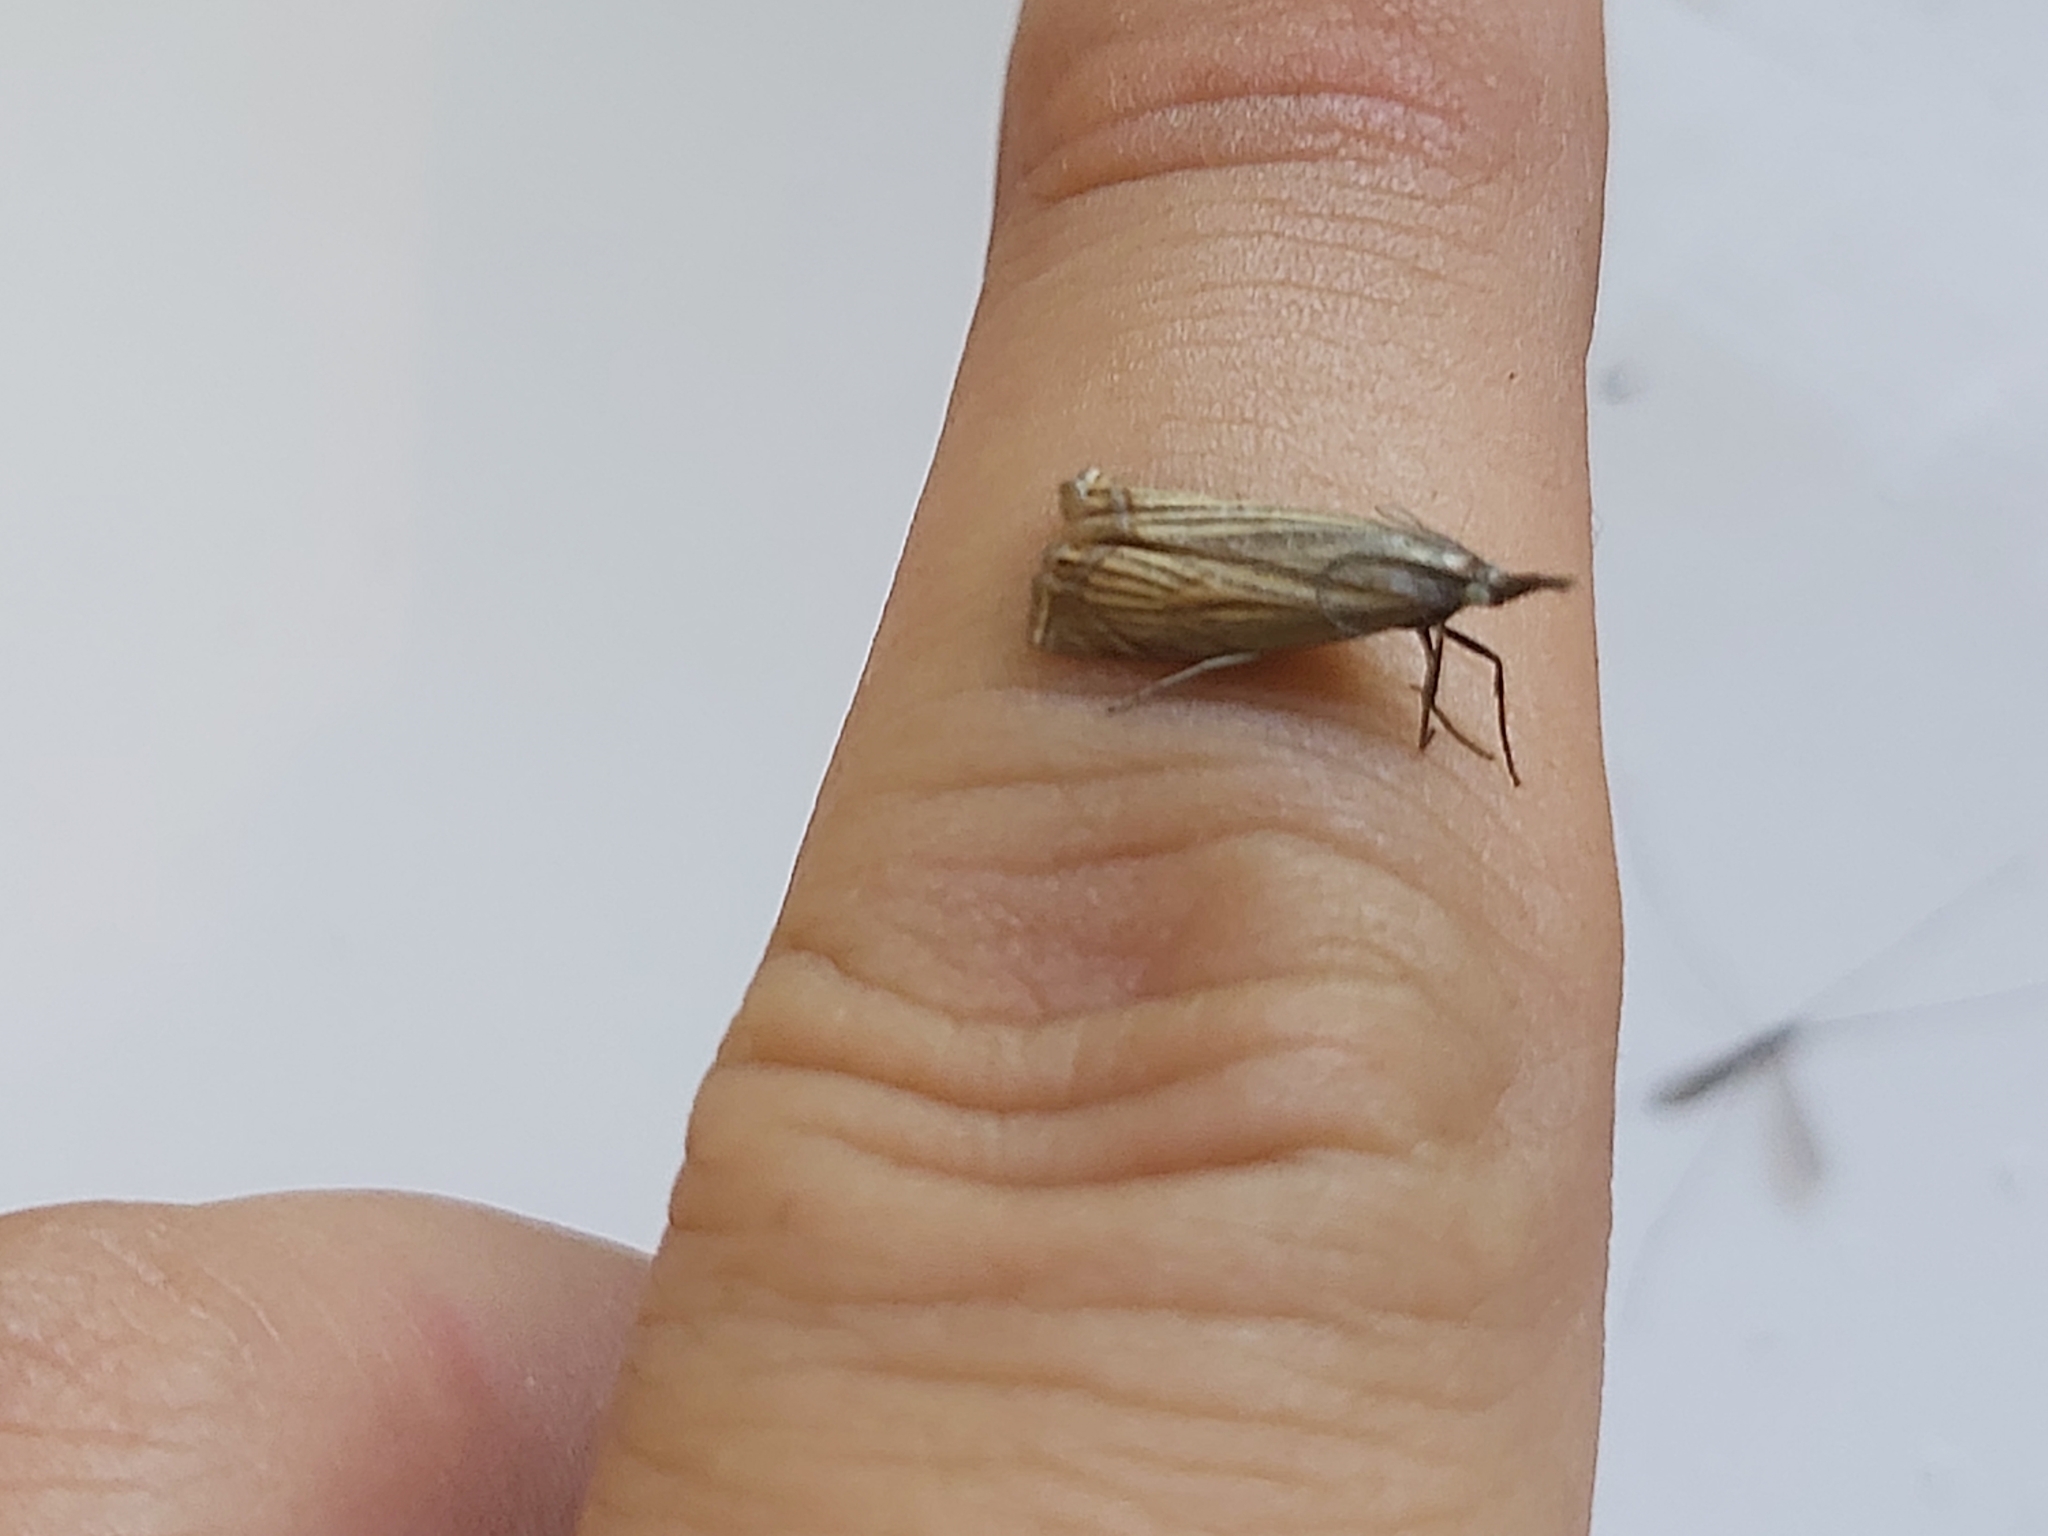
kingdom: Animalia
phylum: Arthropoda
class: Insecta
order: Lepidoptera
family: Crambidae
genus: Chrysoteuchia
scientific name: Chrysoteuchia culmella
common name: Garden grass-veneer
